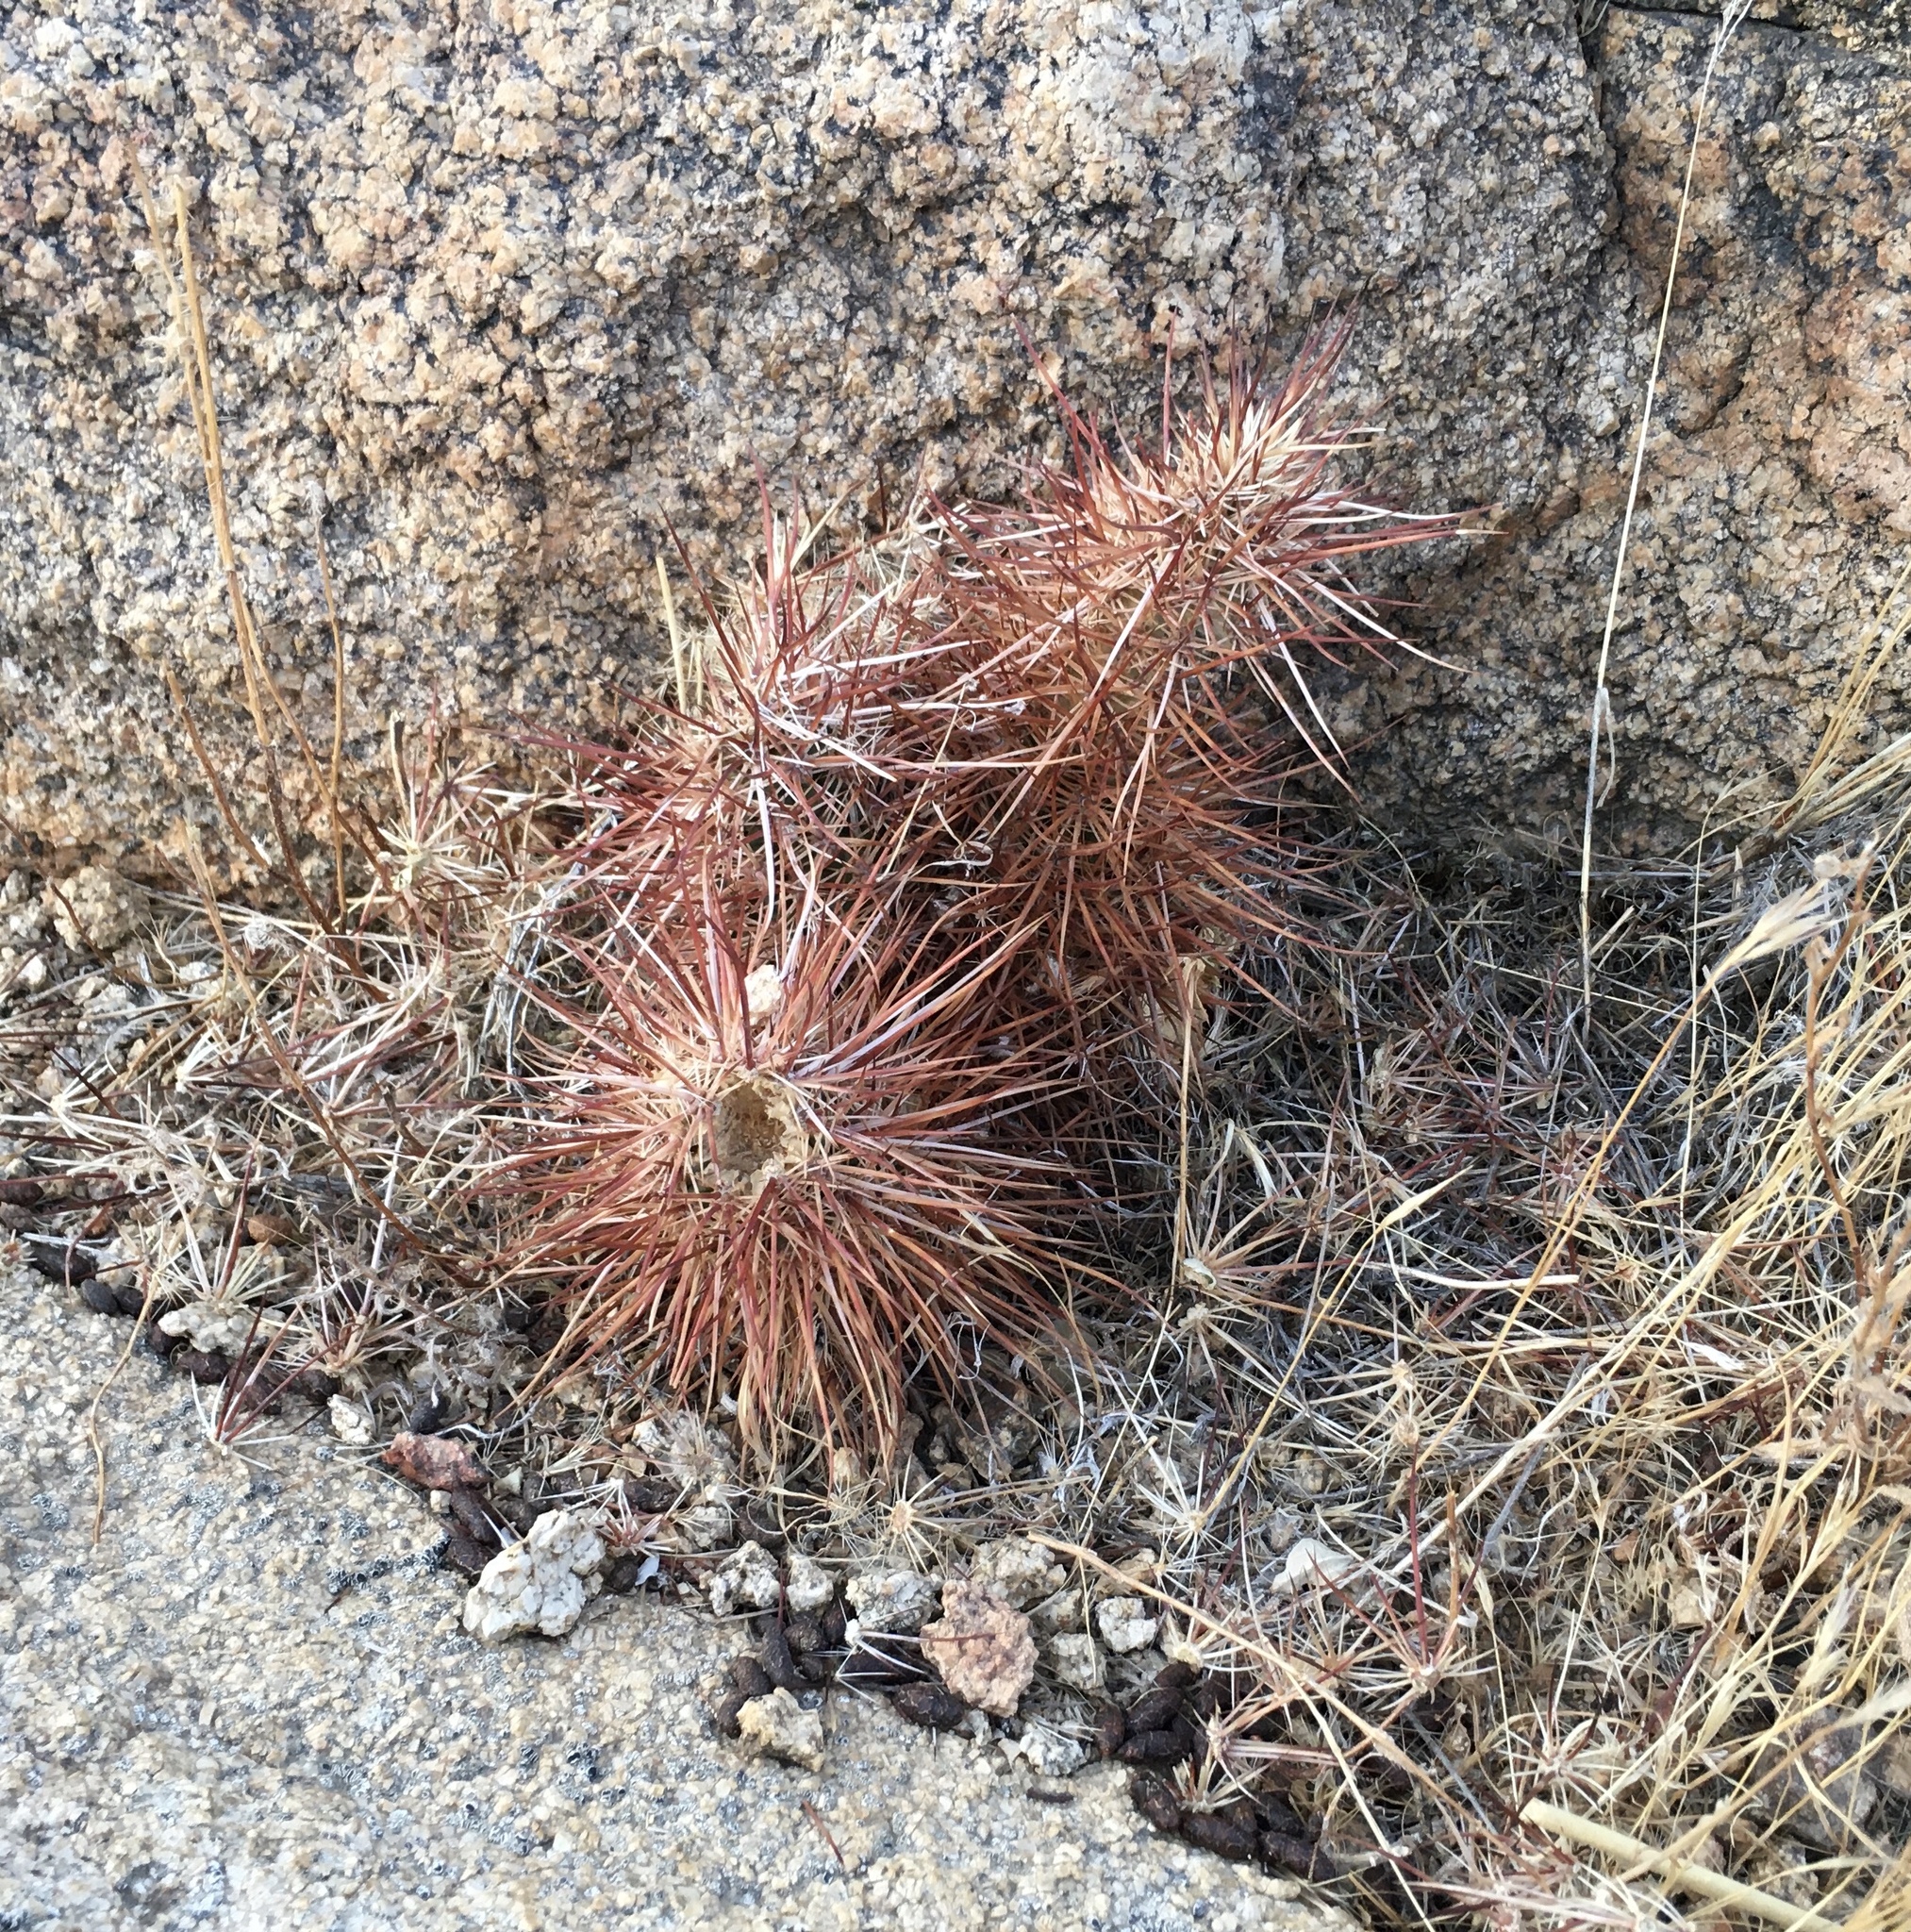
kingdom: Plantae
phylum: Tracheophyta
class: Magnoliopsida
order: Caryophyllales
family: Cactaceae
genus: Echinocereus
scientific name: Echinocereus engelmannii
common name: Engelmann's hedgehog cactus
